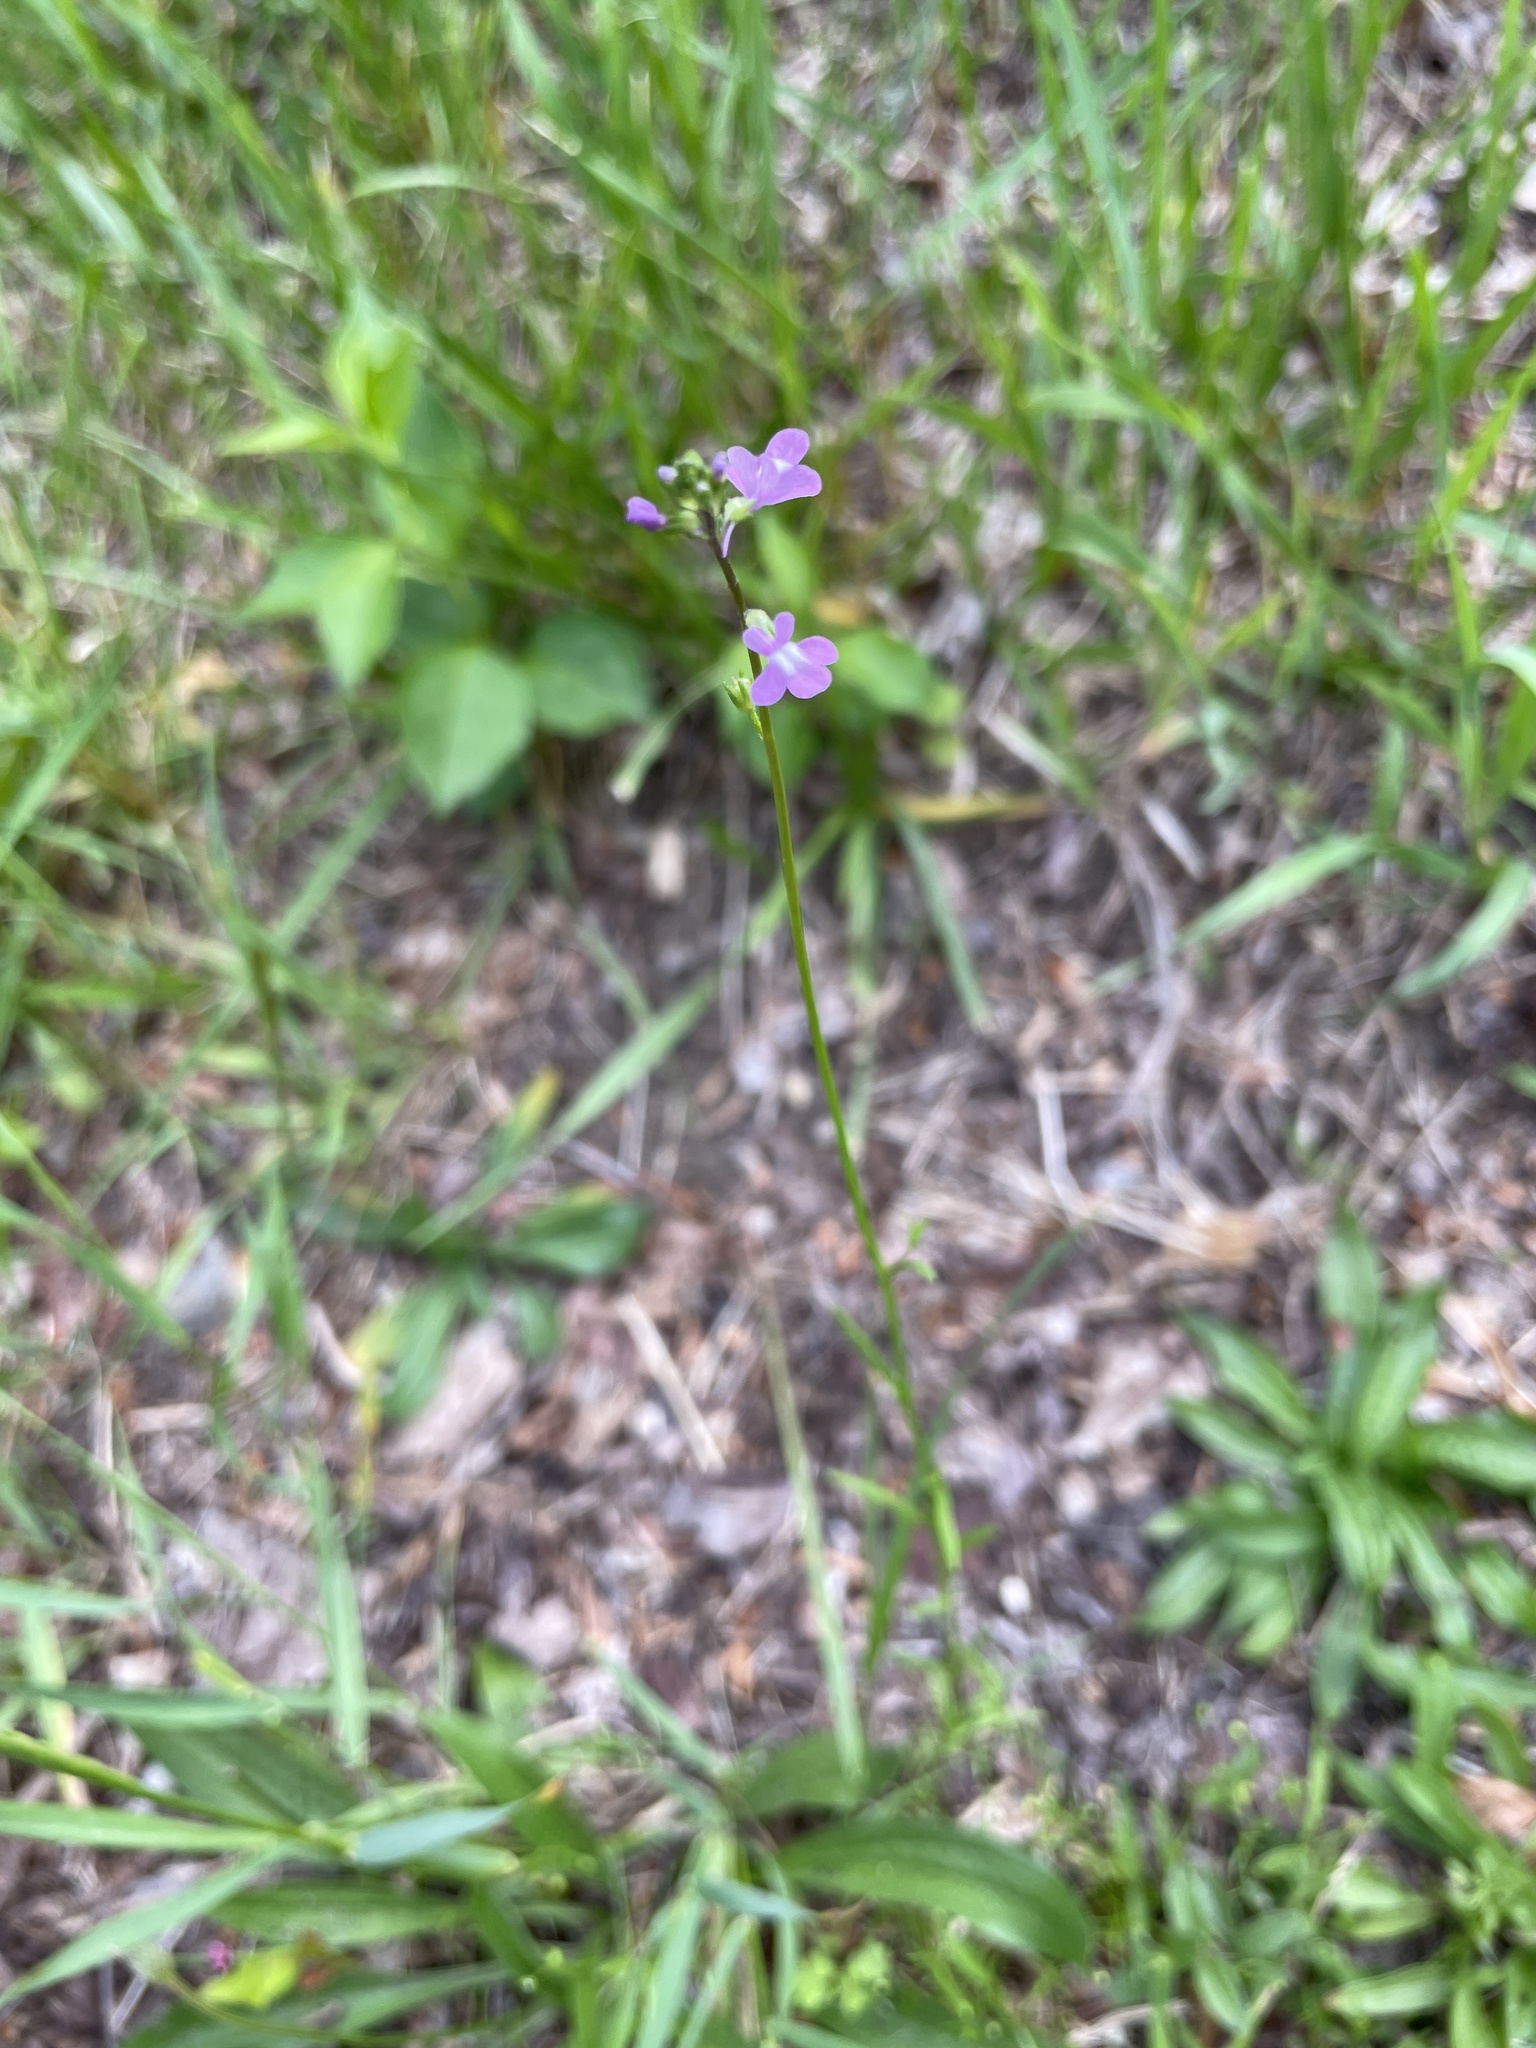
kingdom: Plantae
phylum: Tracheophyta
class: Magnoliopsida
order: Lamiales
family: Plantaginaceae
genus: Nuttallanthus
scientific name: Nuttallanthus canadensis
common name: Blue toadflax
